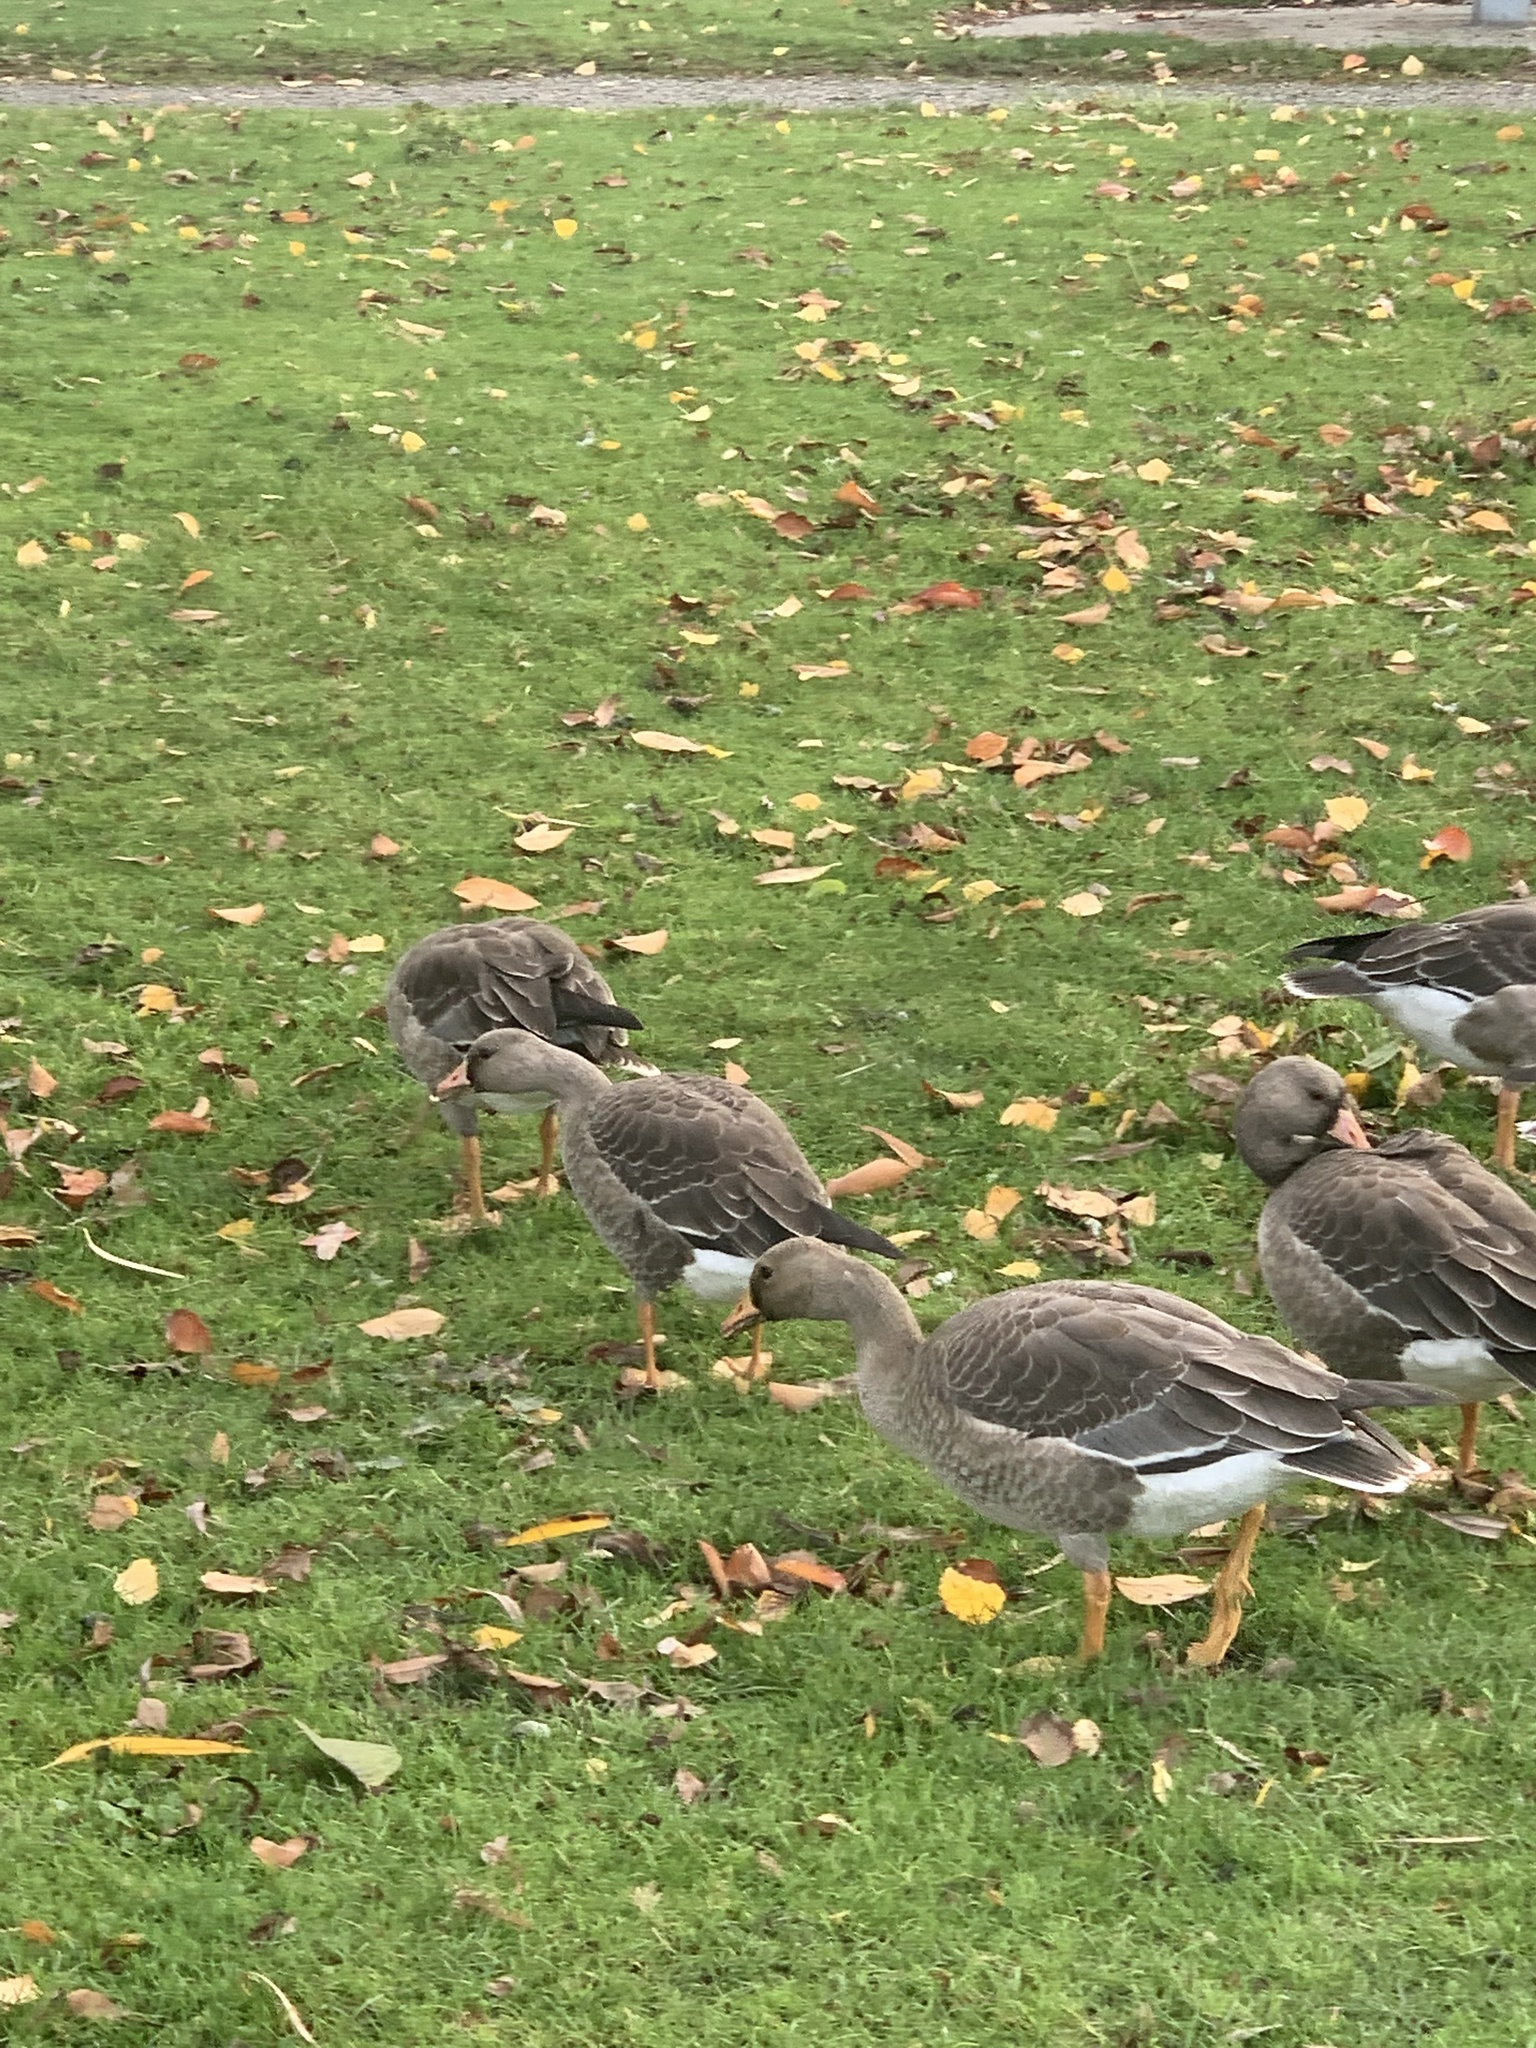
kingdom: Animalia
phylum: Chordata
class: Aves
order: Anseriformes
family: Anatidae
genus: Anser
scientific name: Anser albifrons
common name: Greater white-fronted goose
